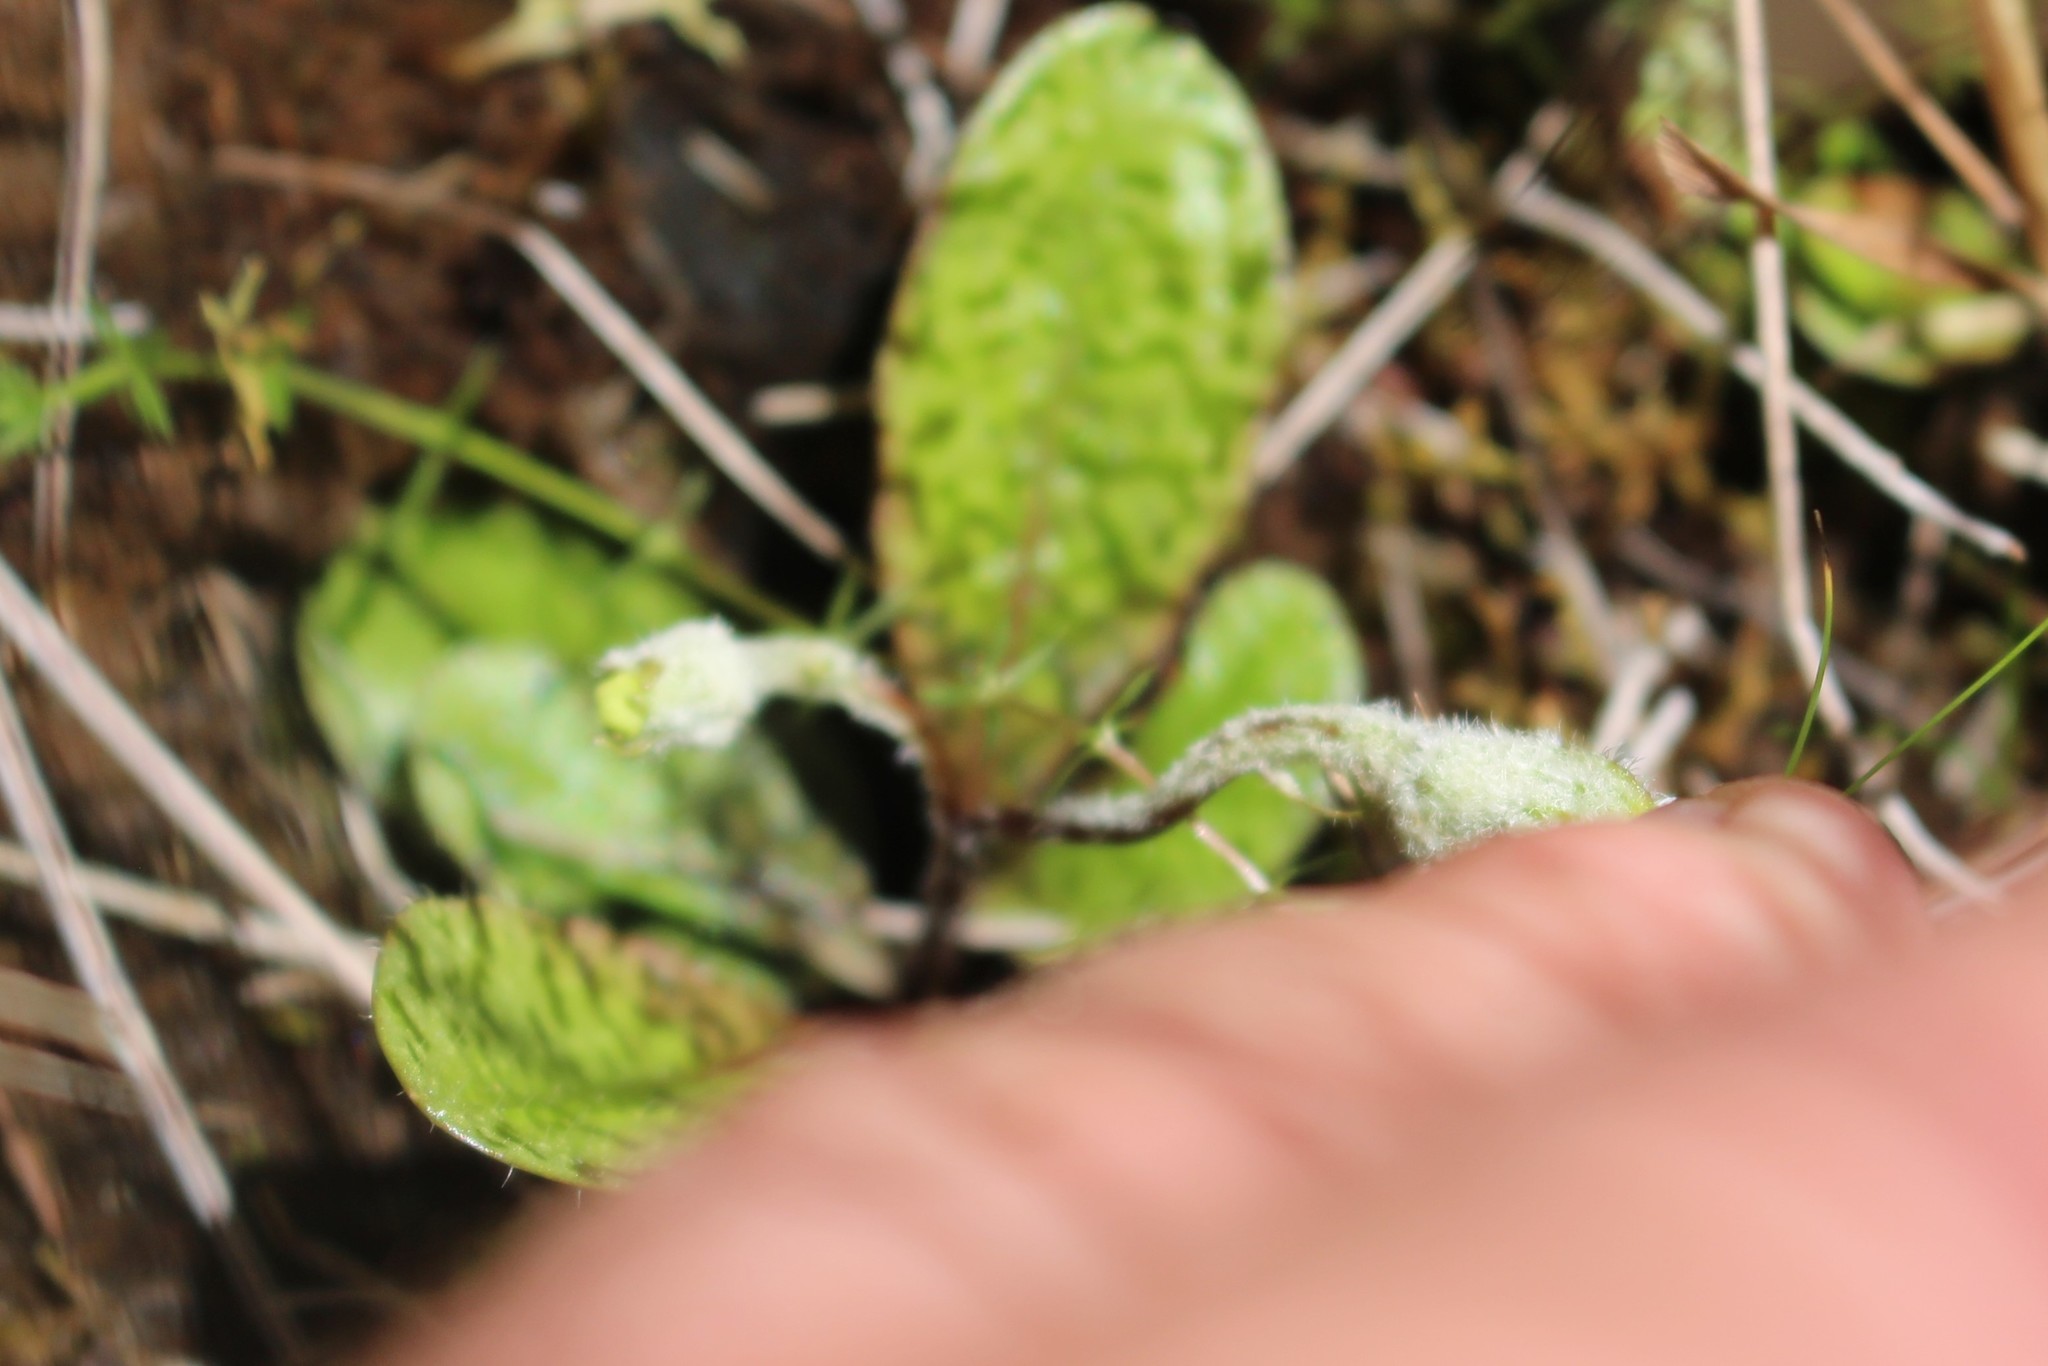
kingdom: Plantae
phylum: Tracheophyta
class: Magnoliopsida
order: Lamiales
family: Mazaceae
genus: Mazus
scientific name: Mazus radicans
